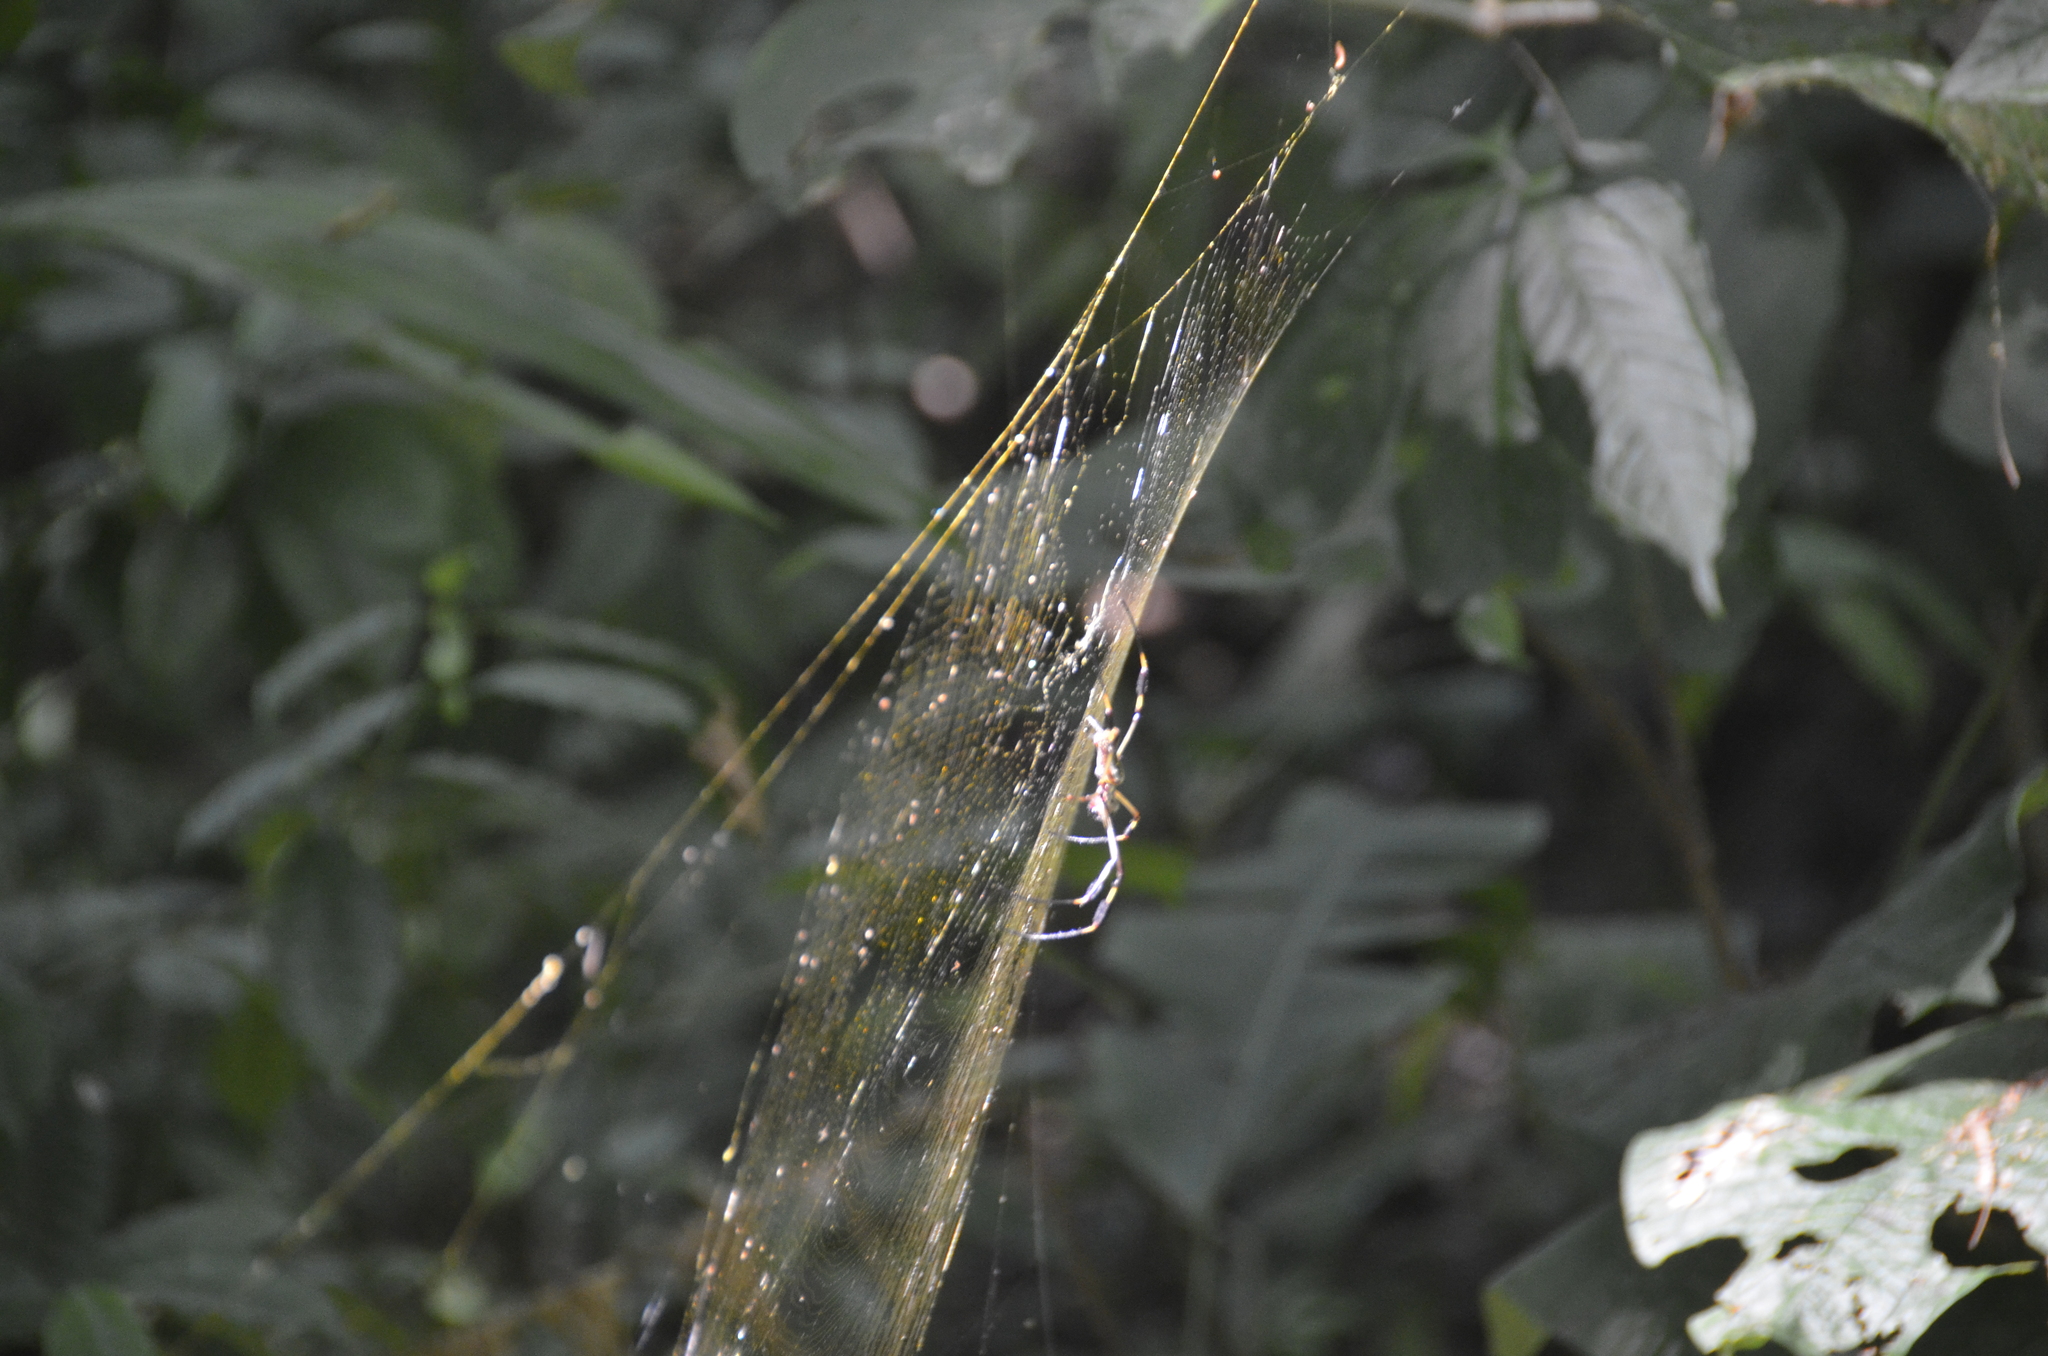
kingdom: Animalia
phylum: Arthropoda
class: Arachnida
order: Araneae
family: Araneidae
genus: Trichonephila
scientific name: Trichonephila clavipes
